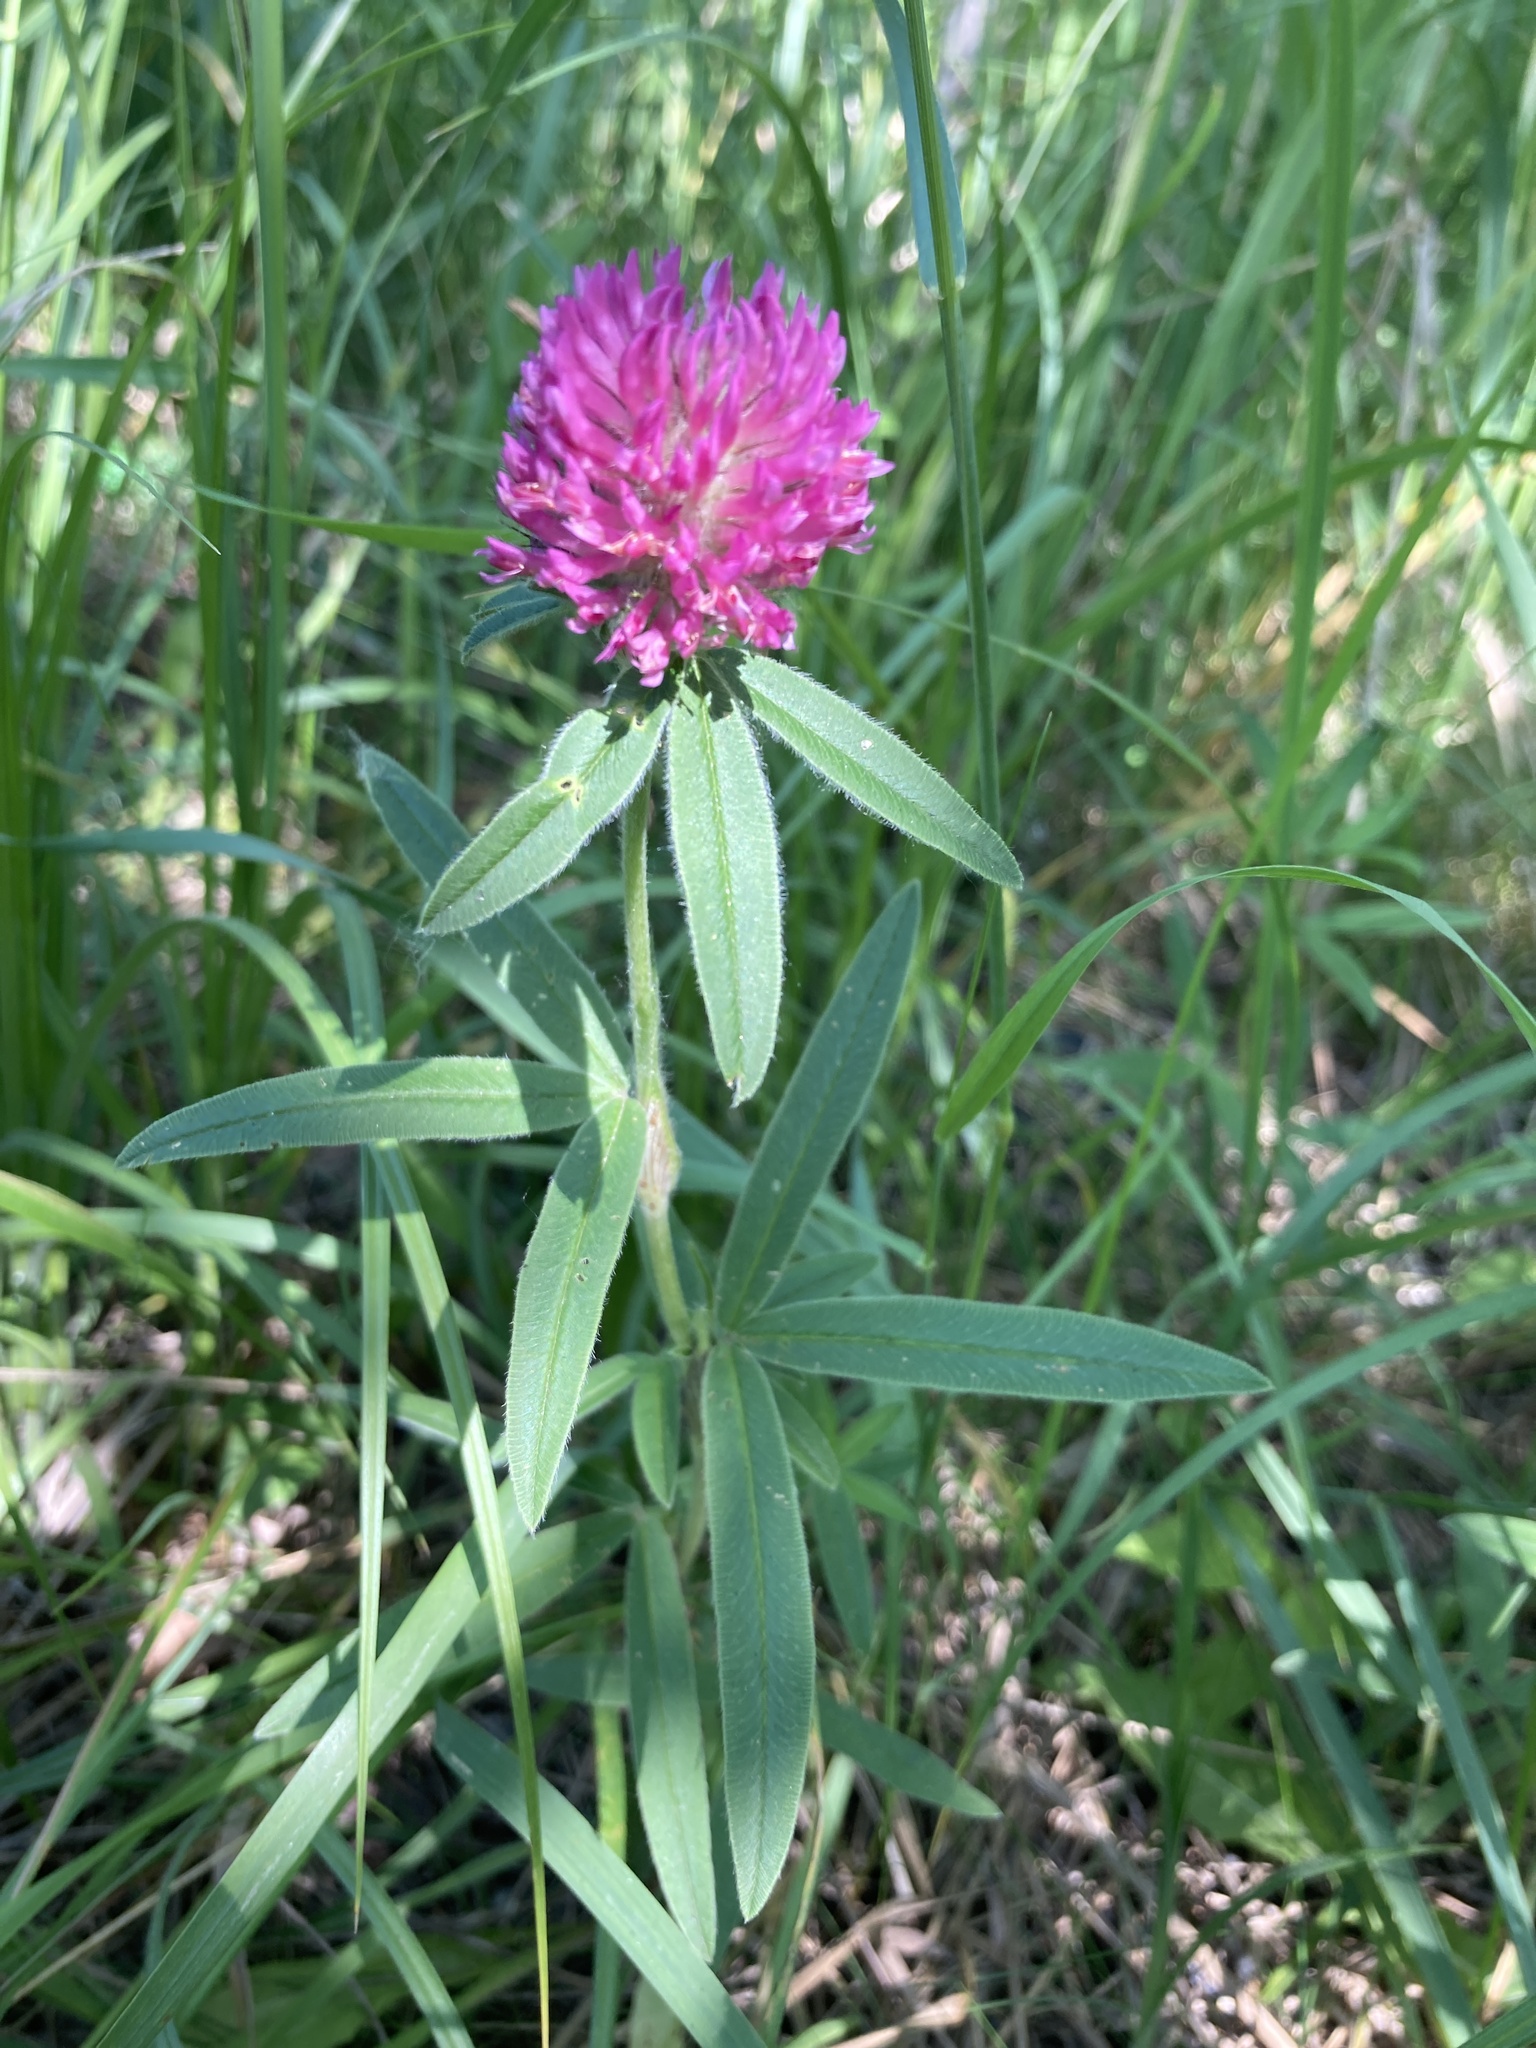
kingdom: Plantae
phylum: Tracheophyta
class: Magnoliopsida
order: Fabales
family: Fabaceae
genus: Trifolium
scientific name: Trifolium alpestre
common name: Owl-head clover
